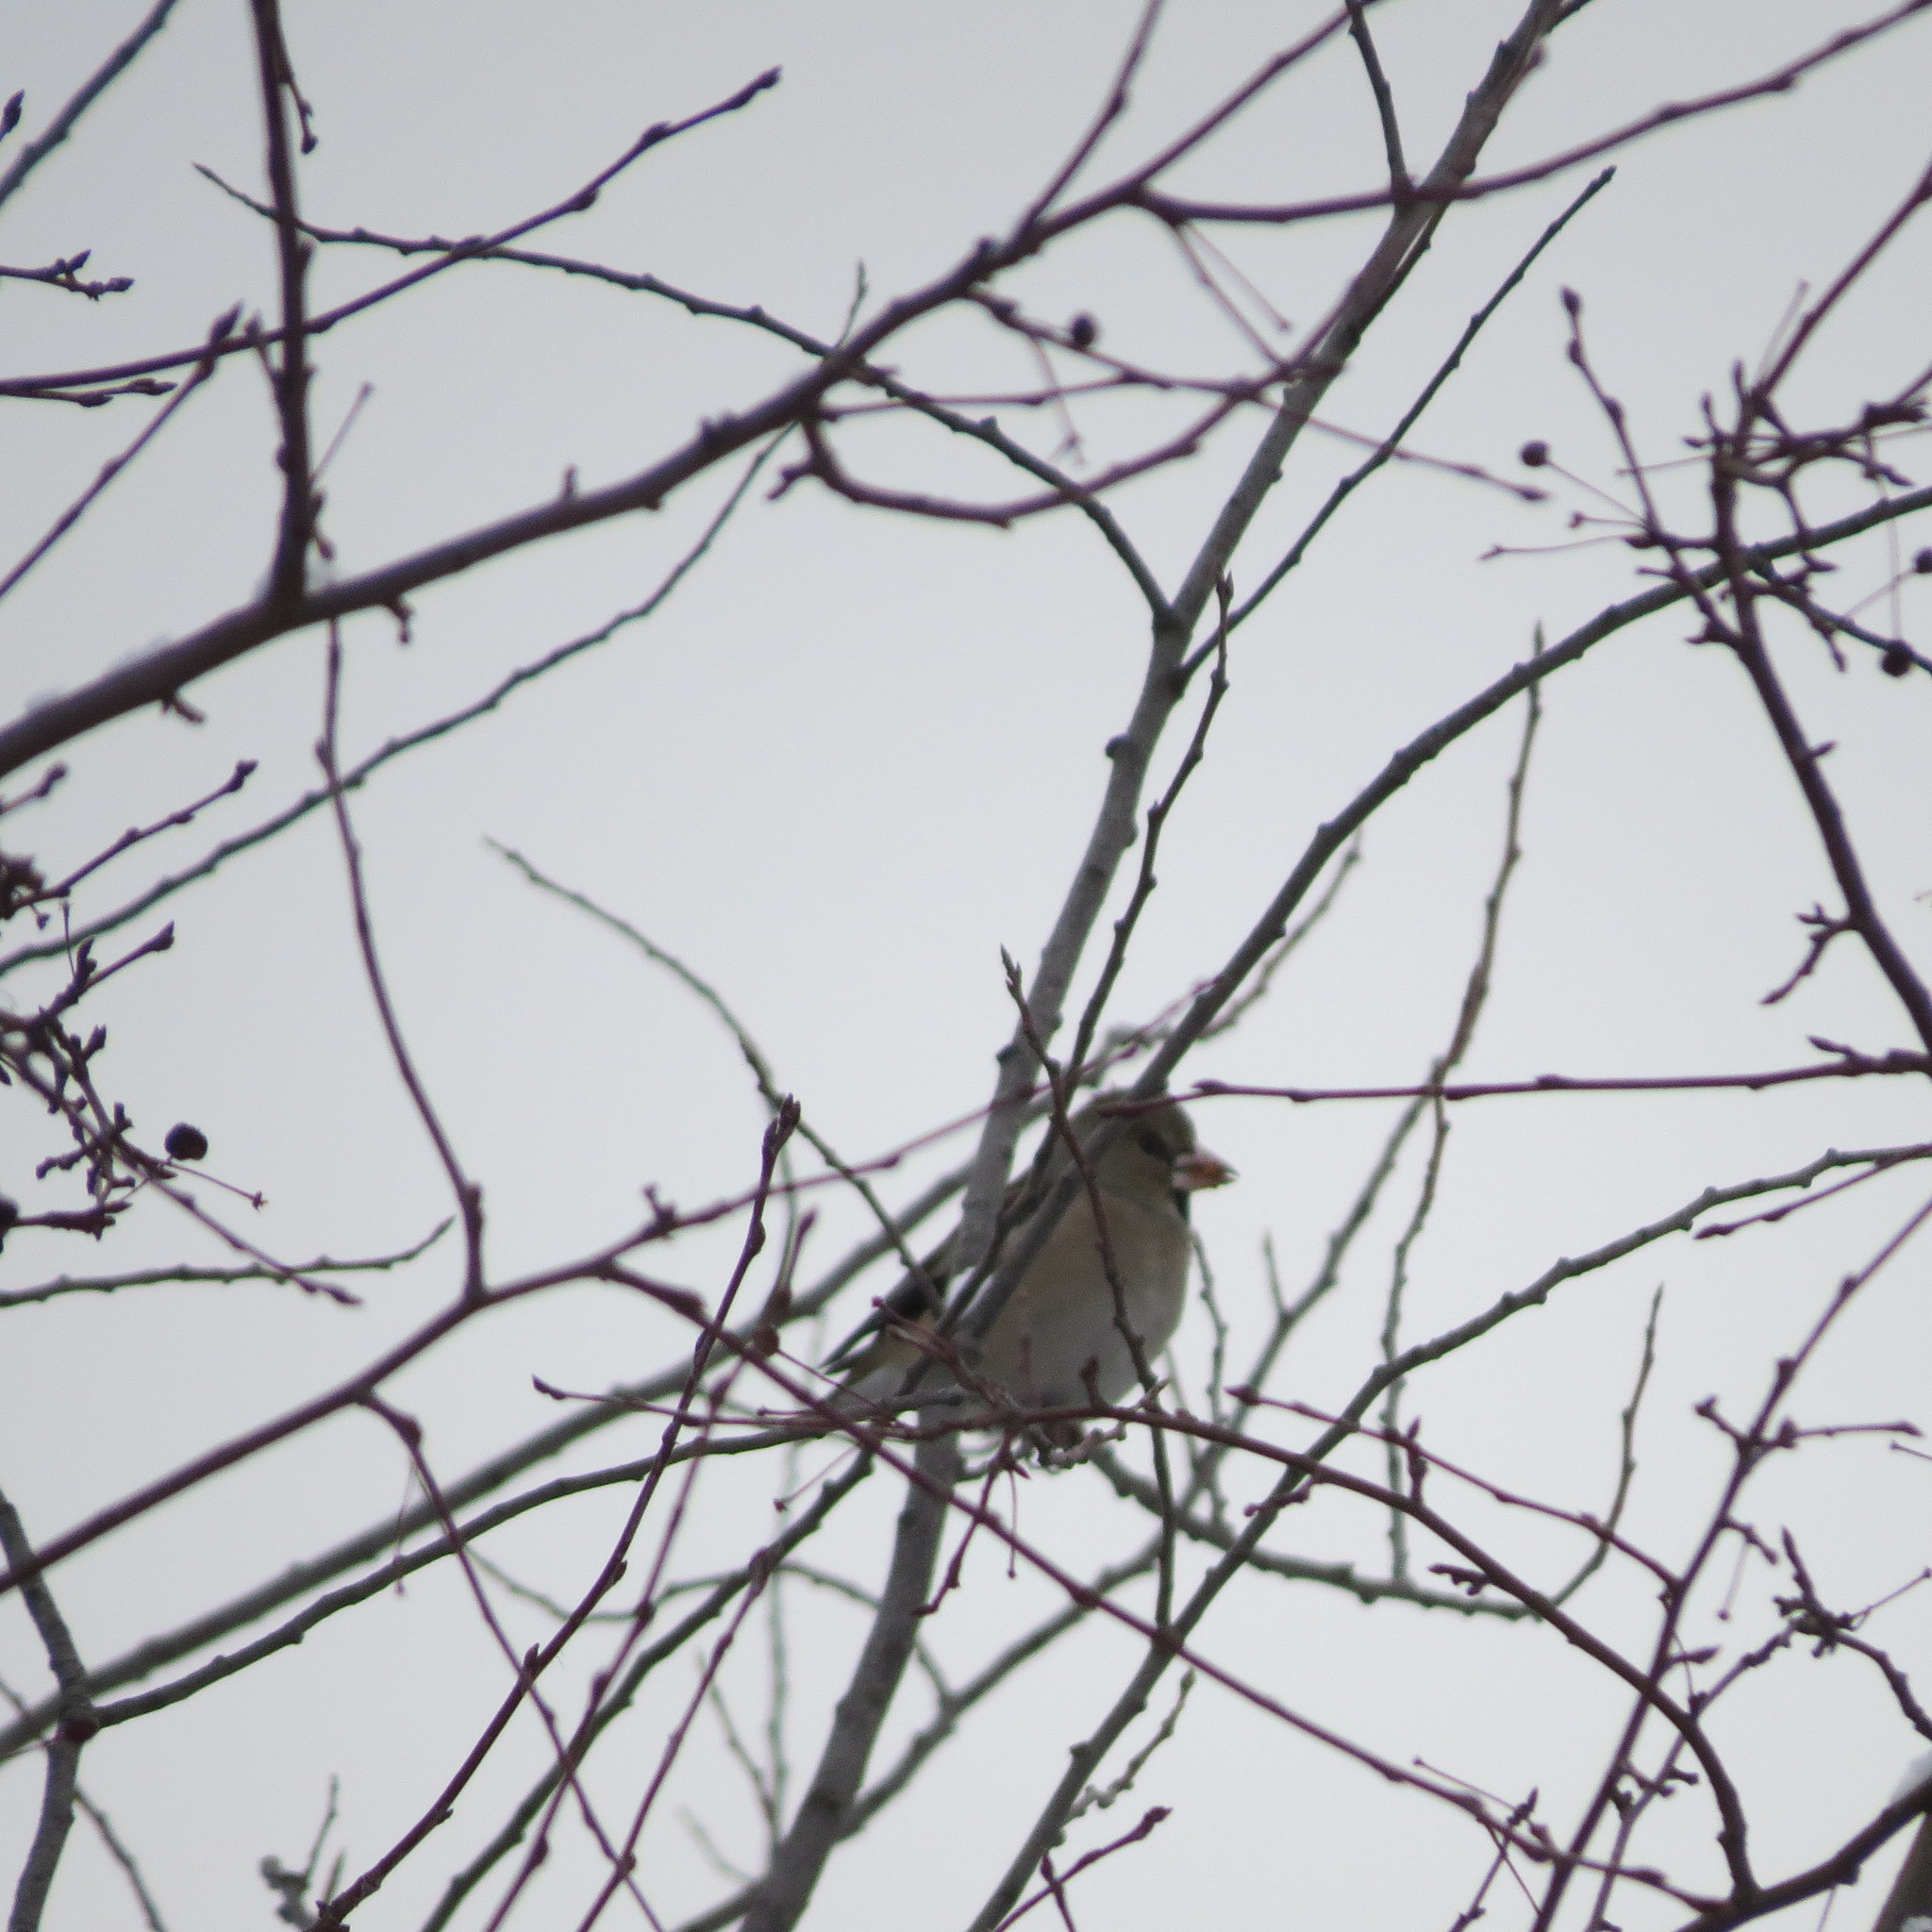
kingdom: Animalia
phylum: Chordata
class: Aves
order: Passeriformes
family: Fringillidae
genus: Coccothraustes
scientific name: Coccothraustes coccothraustes
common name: Hawfinch
